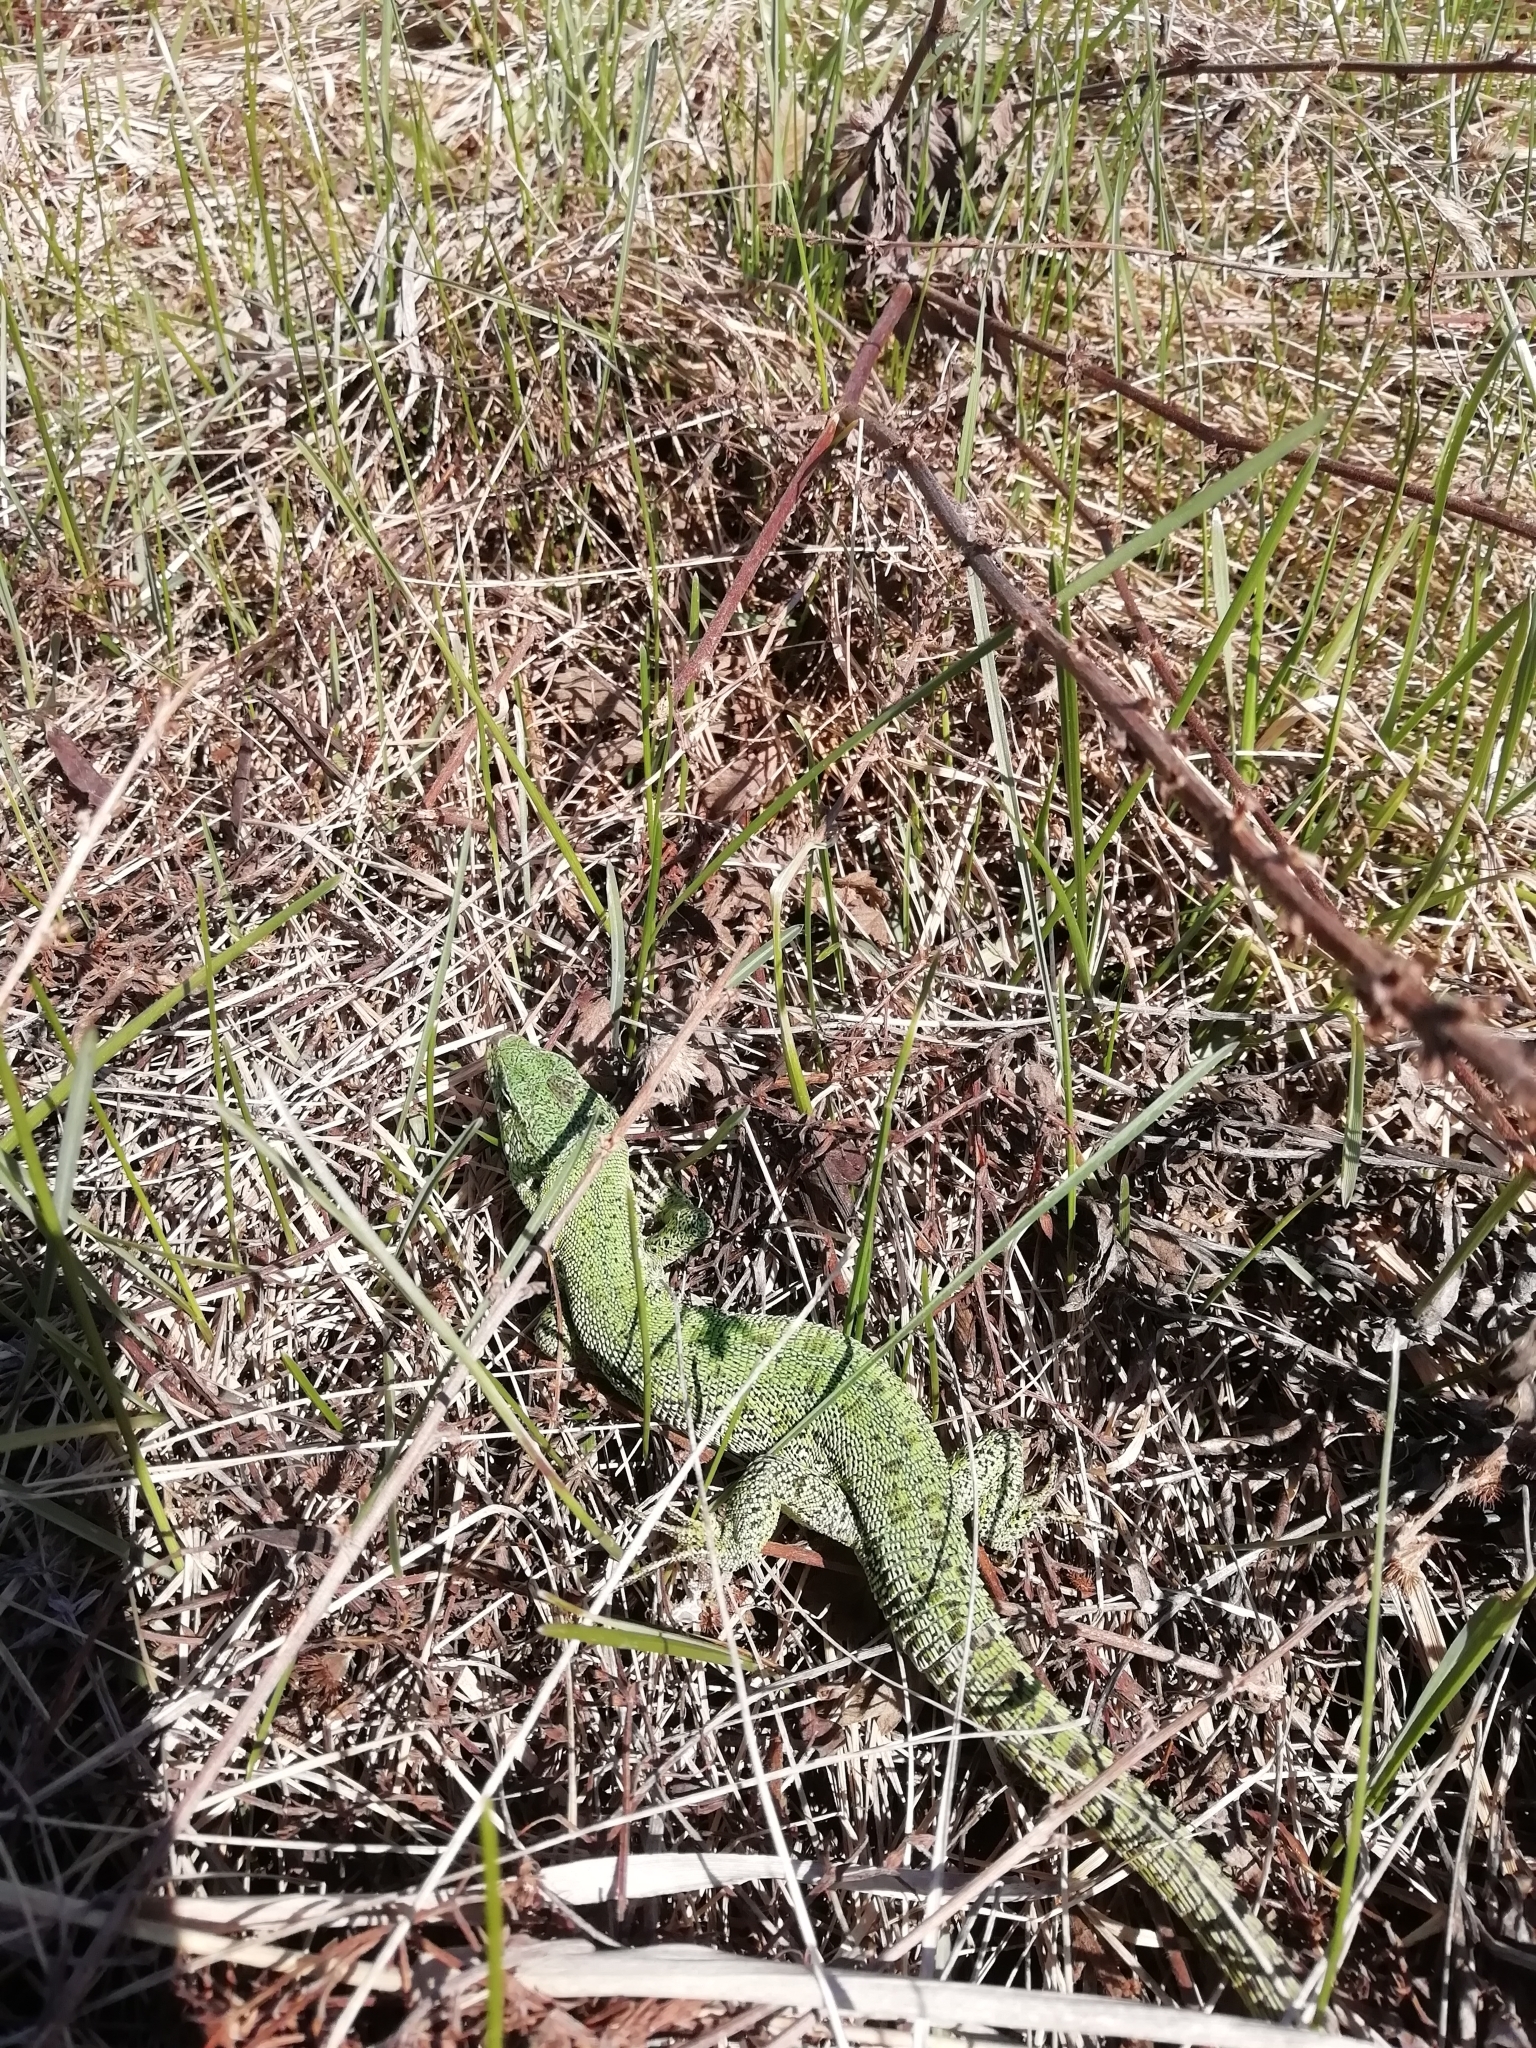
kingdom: Animalia
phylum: Chordata
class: Squamata
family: Lacertidae
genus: Lacerta
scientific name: Lacerta agilis
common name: Sand lizard
